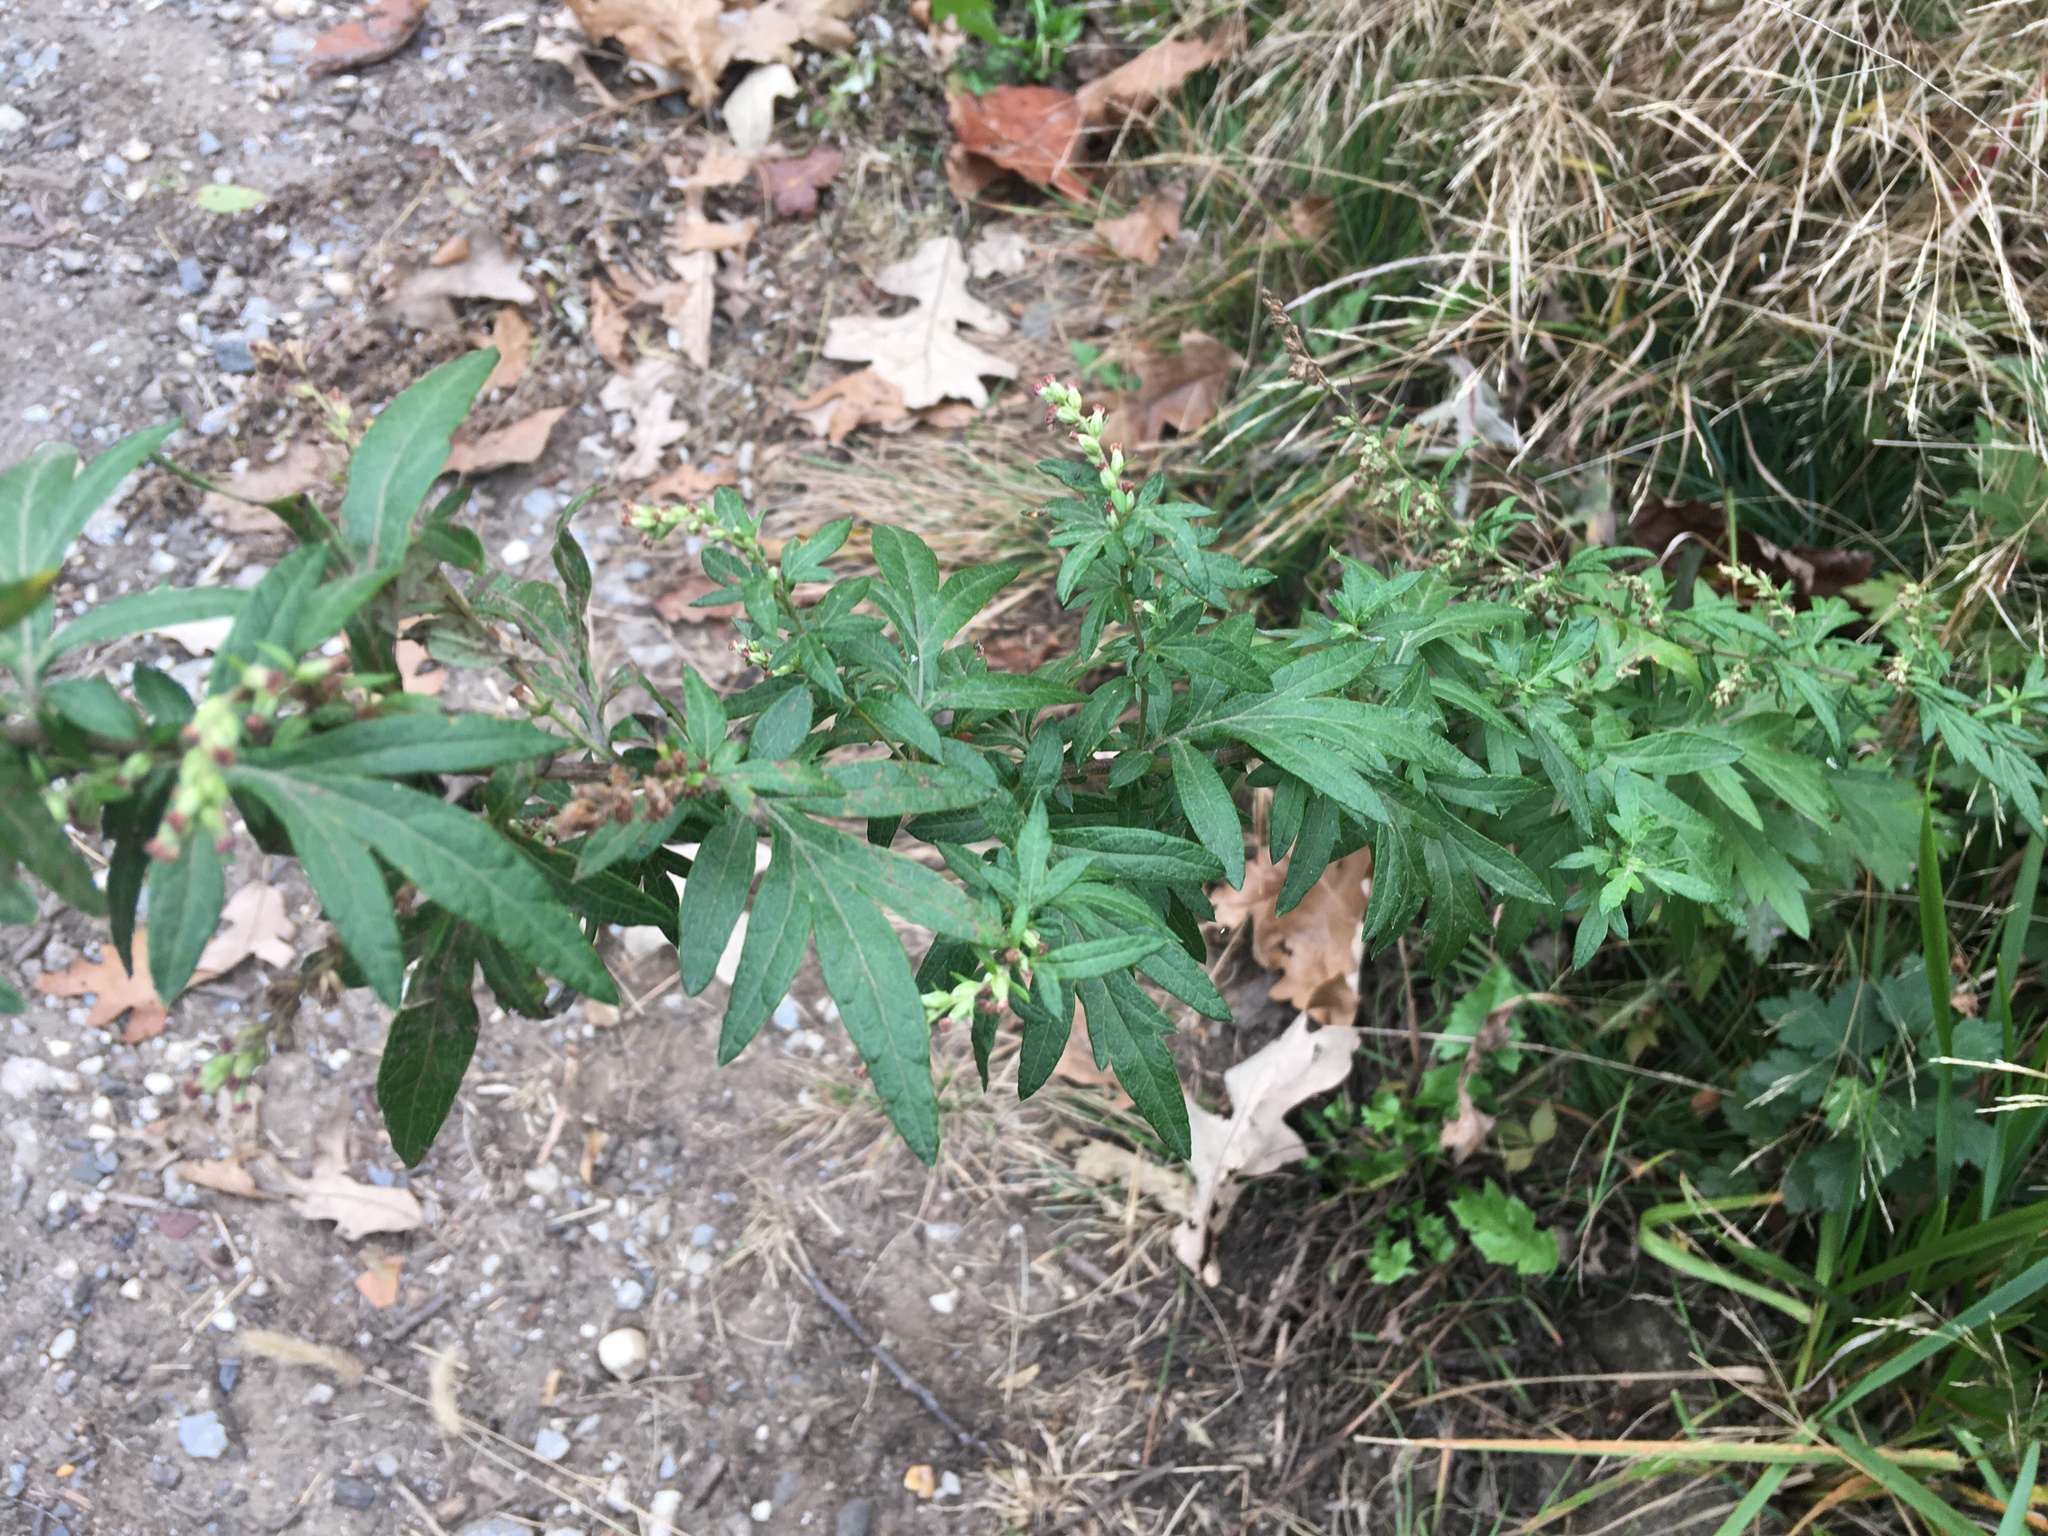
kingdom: Plantae
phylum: Tracheophyta
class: Magnoliopsida
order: Asterales
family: Asteraceae
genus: Artemisia
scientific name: Artemisia vulgaris
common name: Mugwort
